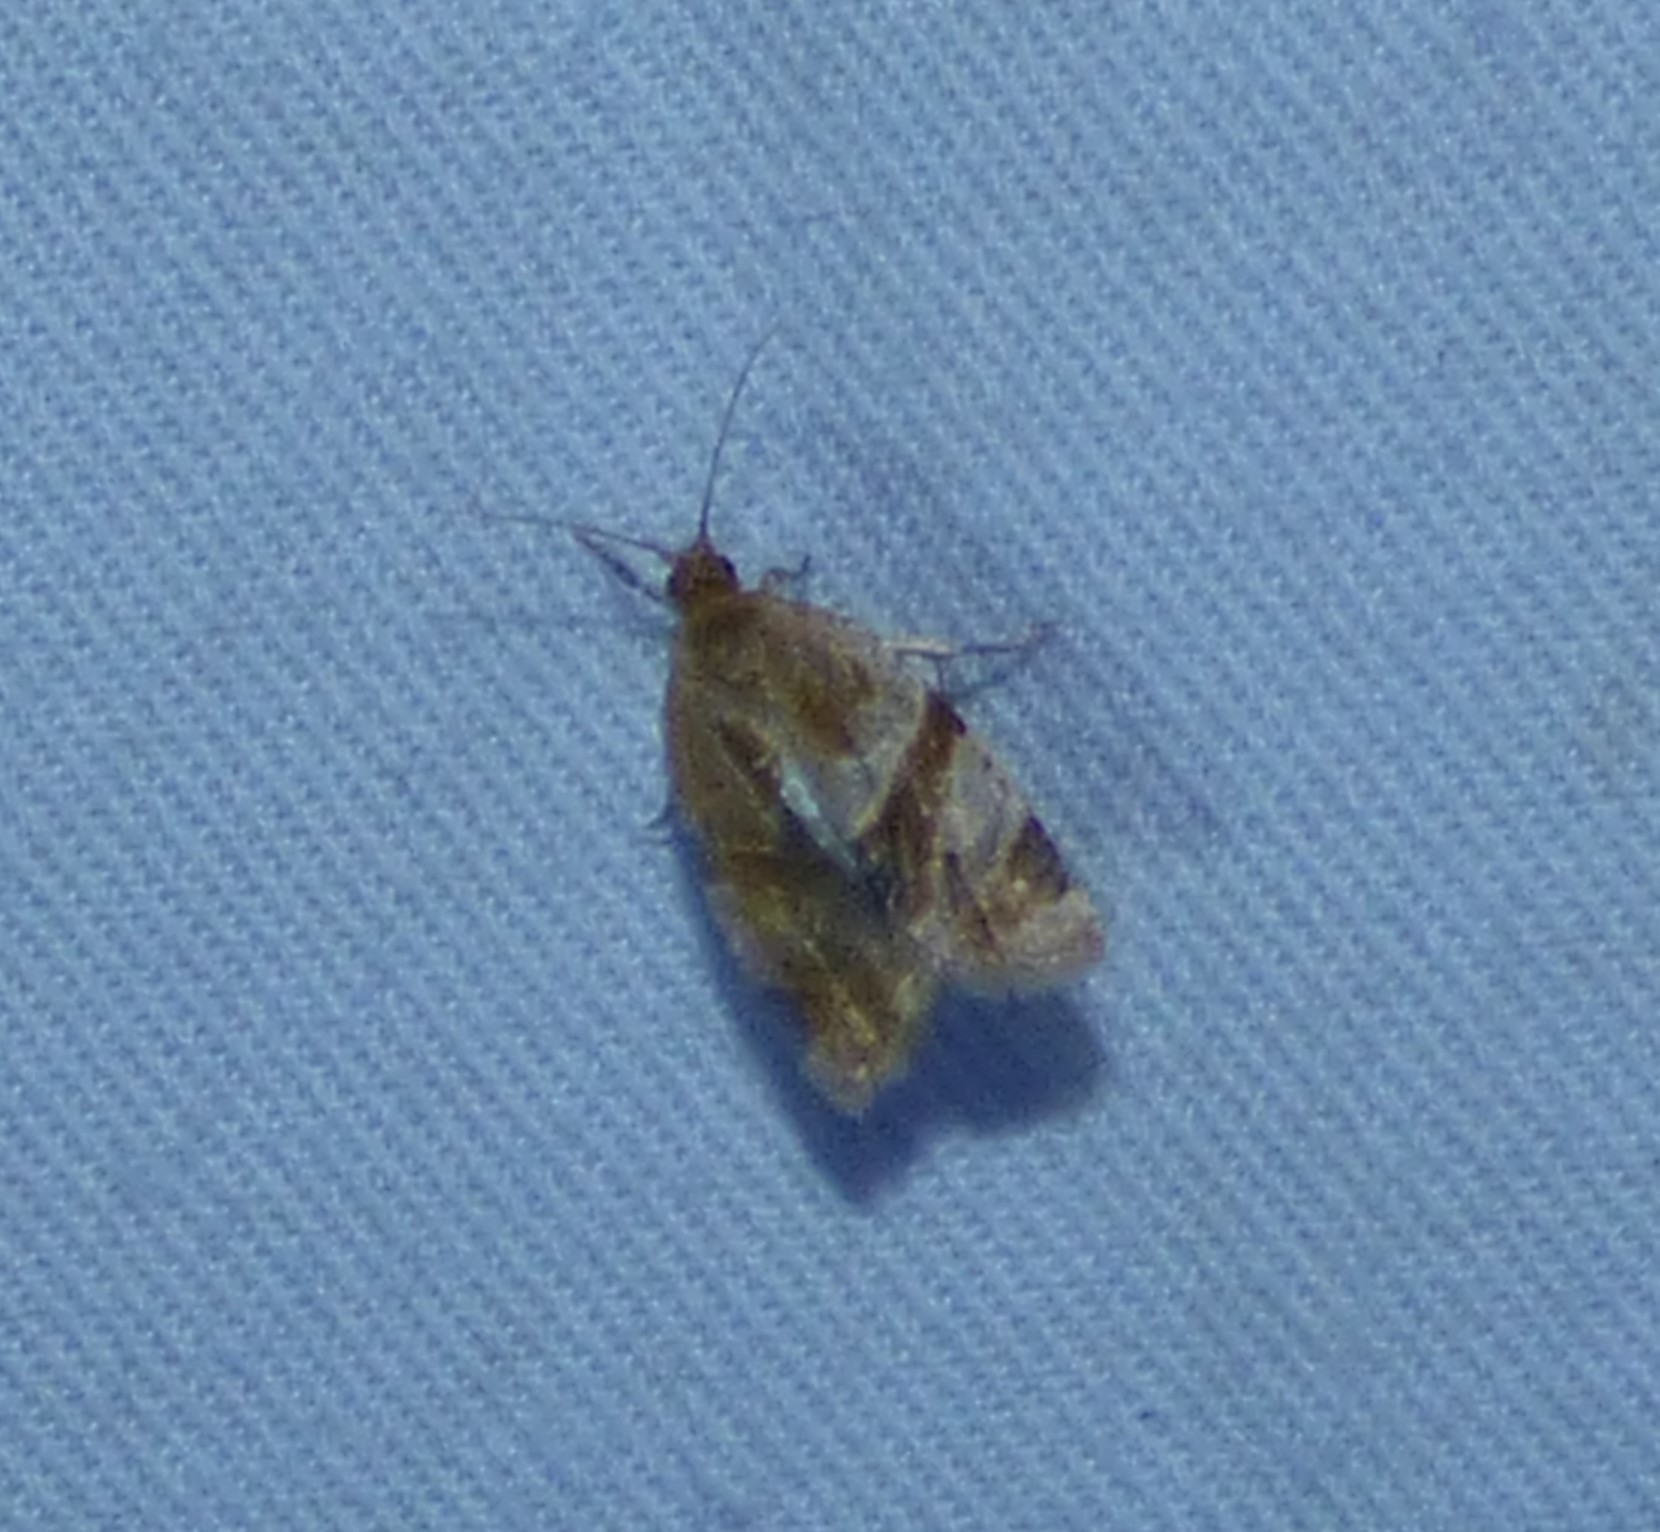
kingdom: Animalia
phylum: Arthropoda
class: Insecta
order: Lepidoptera
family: Tortricidae
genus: Clepsis
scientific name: Clepsis peritana
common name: Garden tortrix
